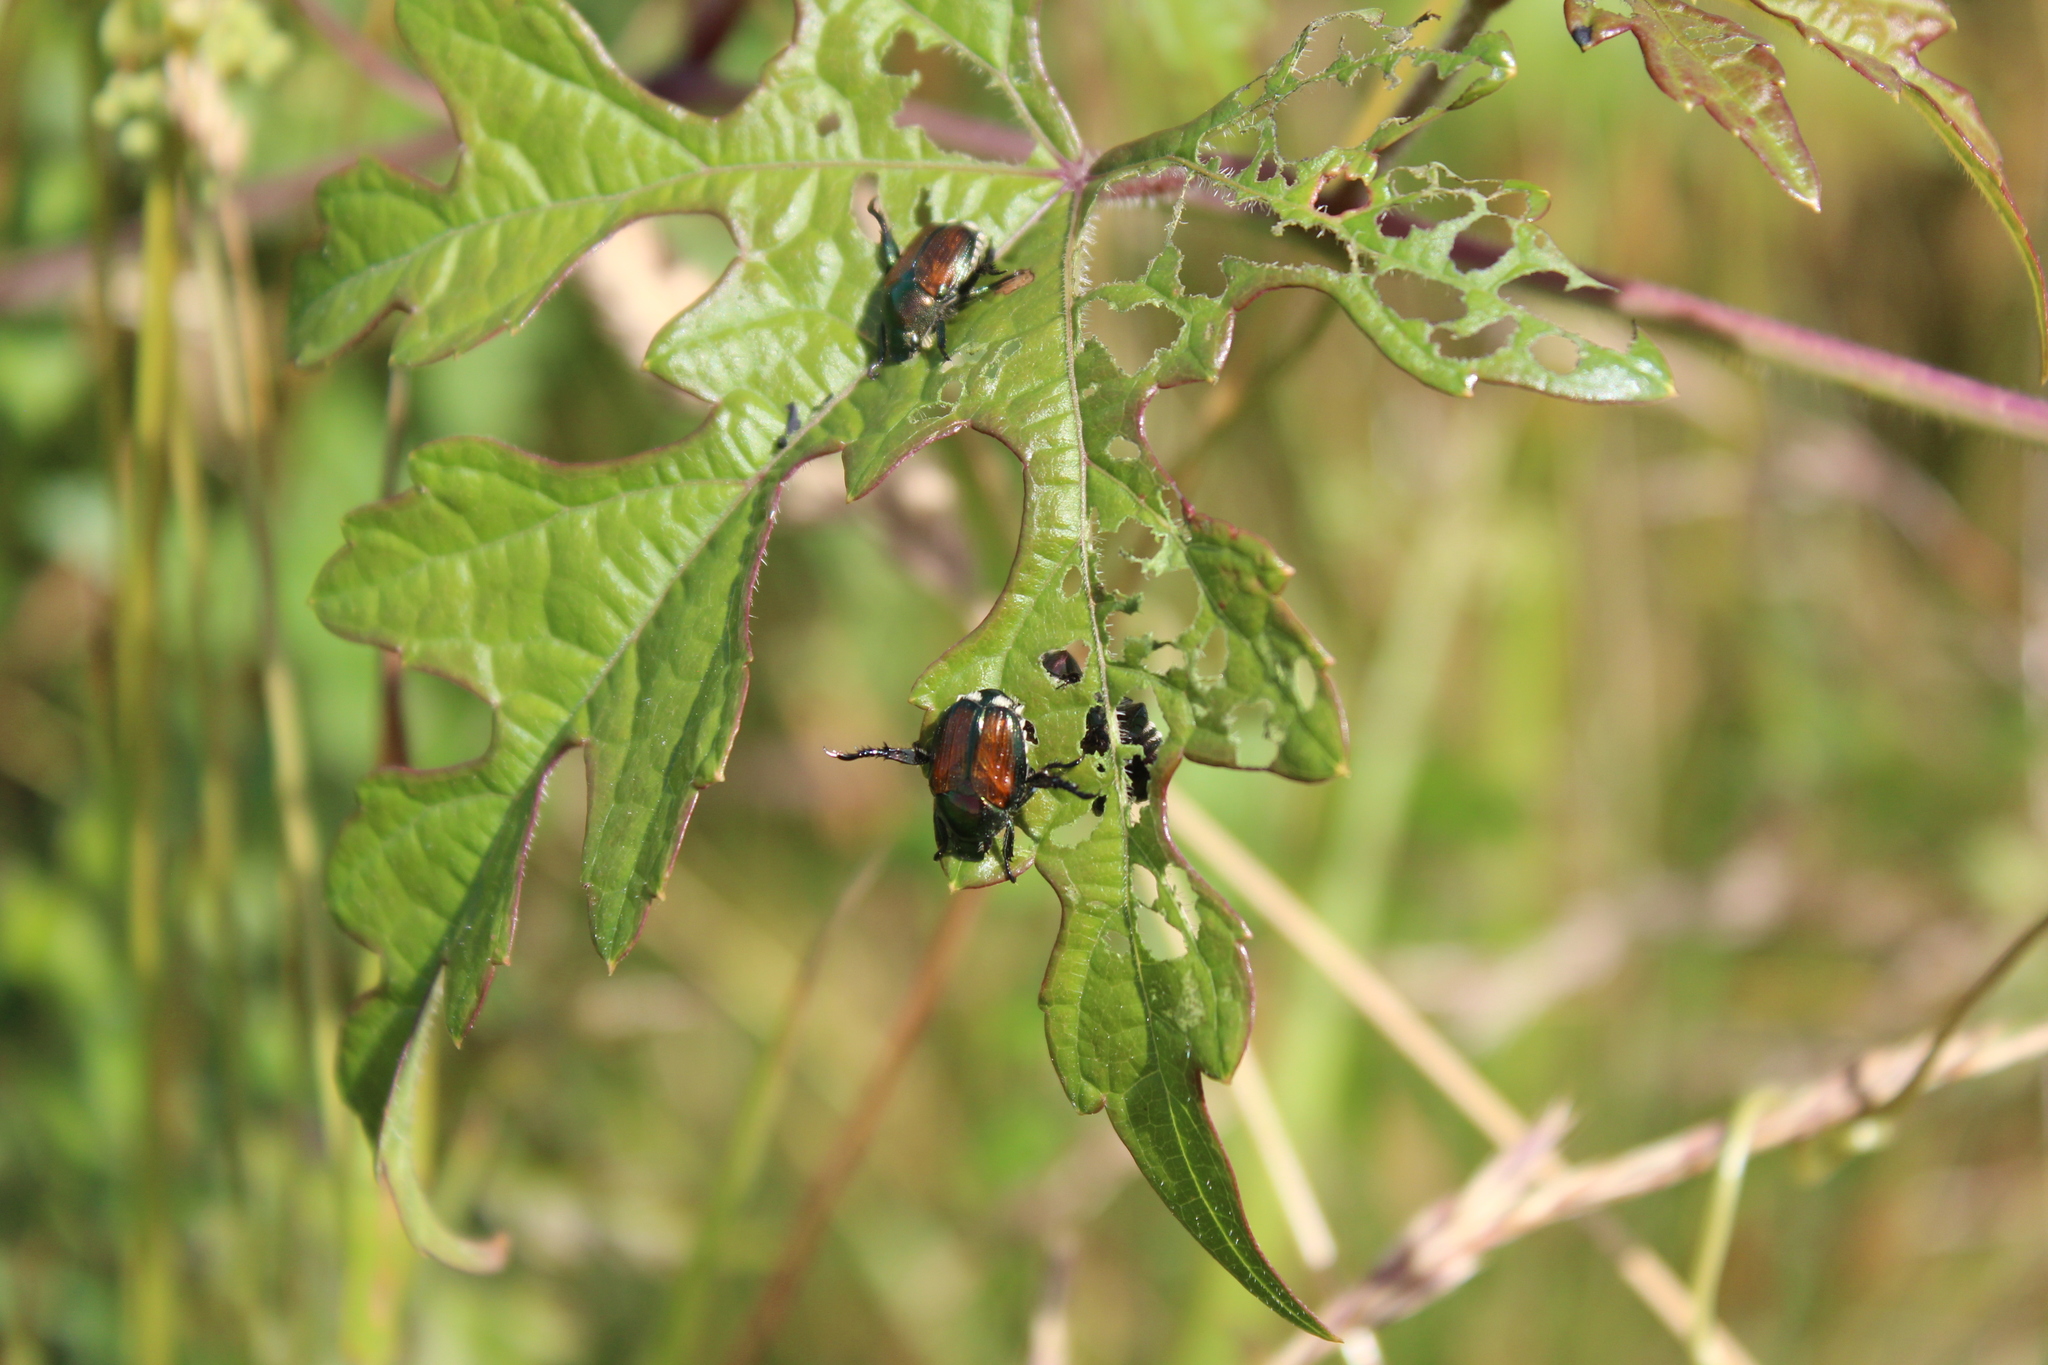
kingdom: Animalia
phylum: Arthropoda
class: Insecta
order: Coleoptera
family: Scarabaeidae
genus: Popillia
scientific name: Popillia japonica
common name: Japanese beetle
